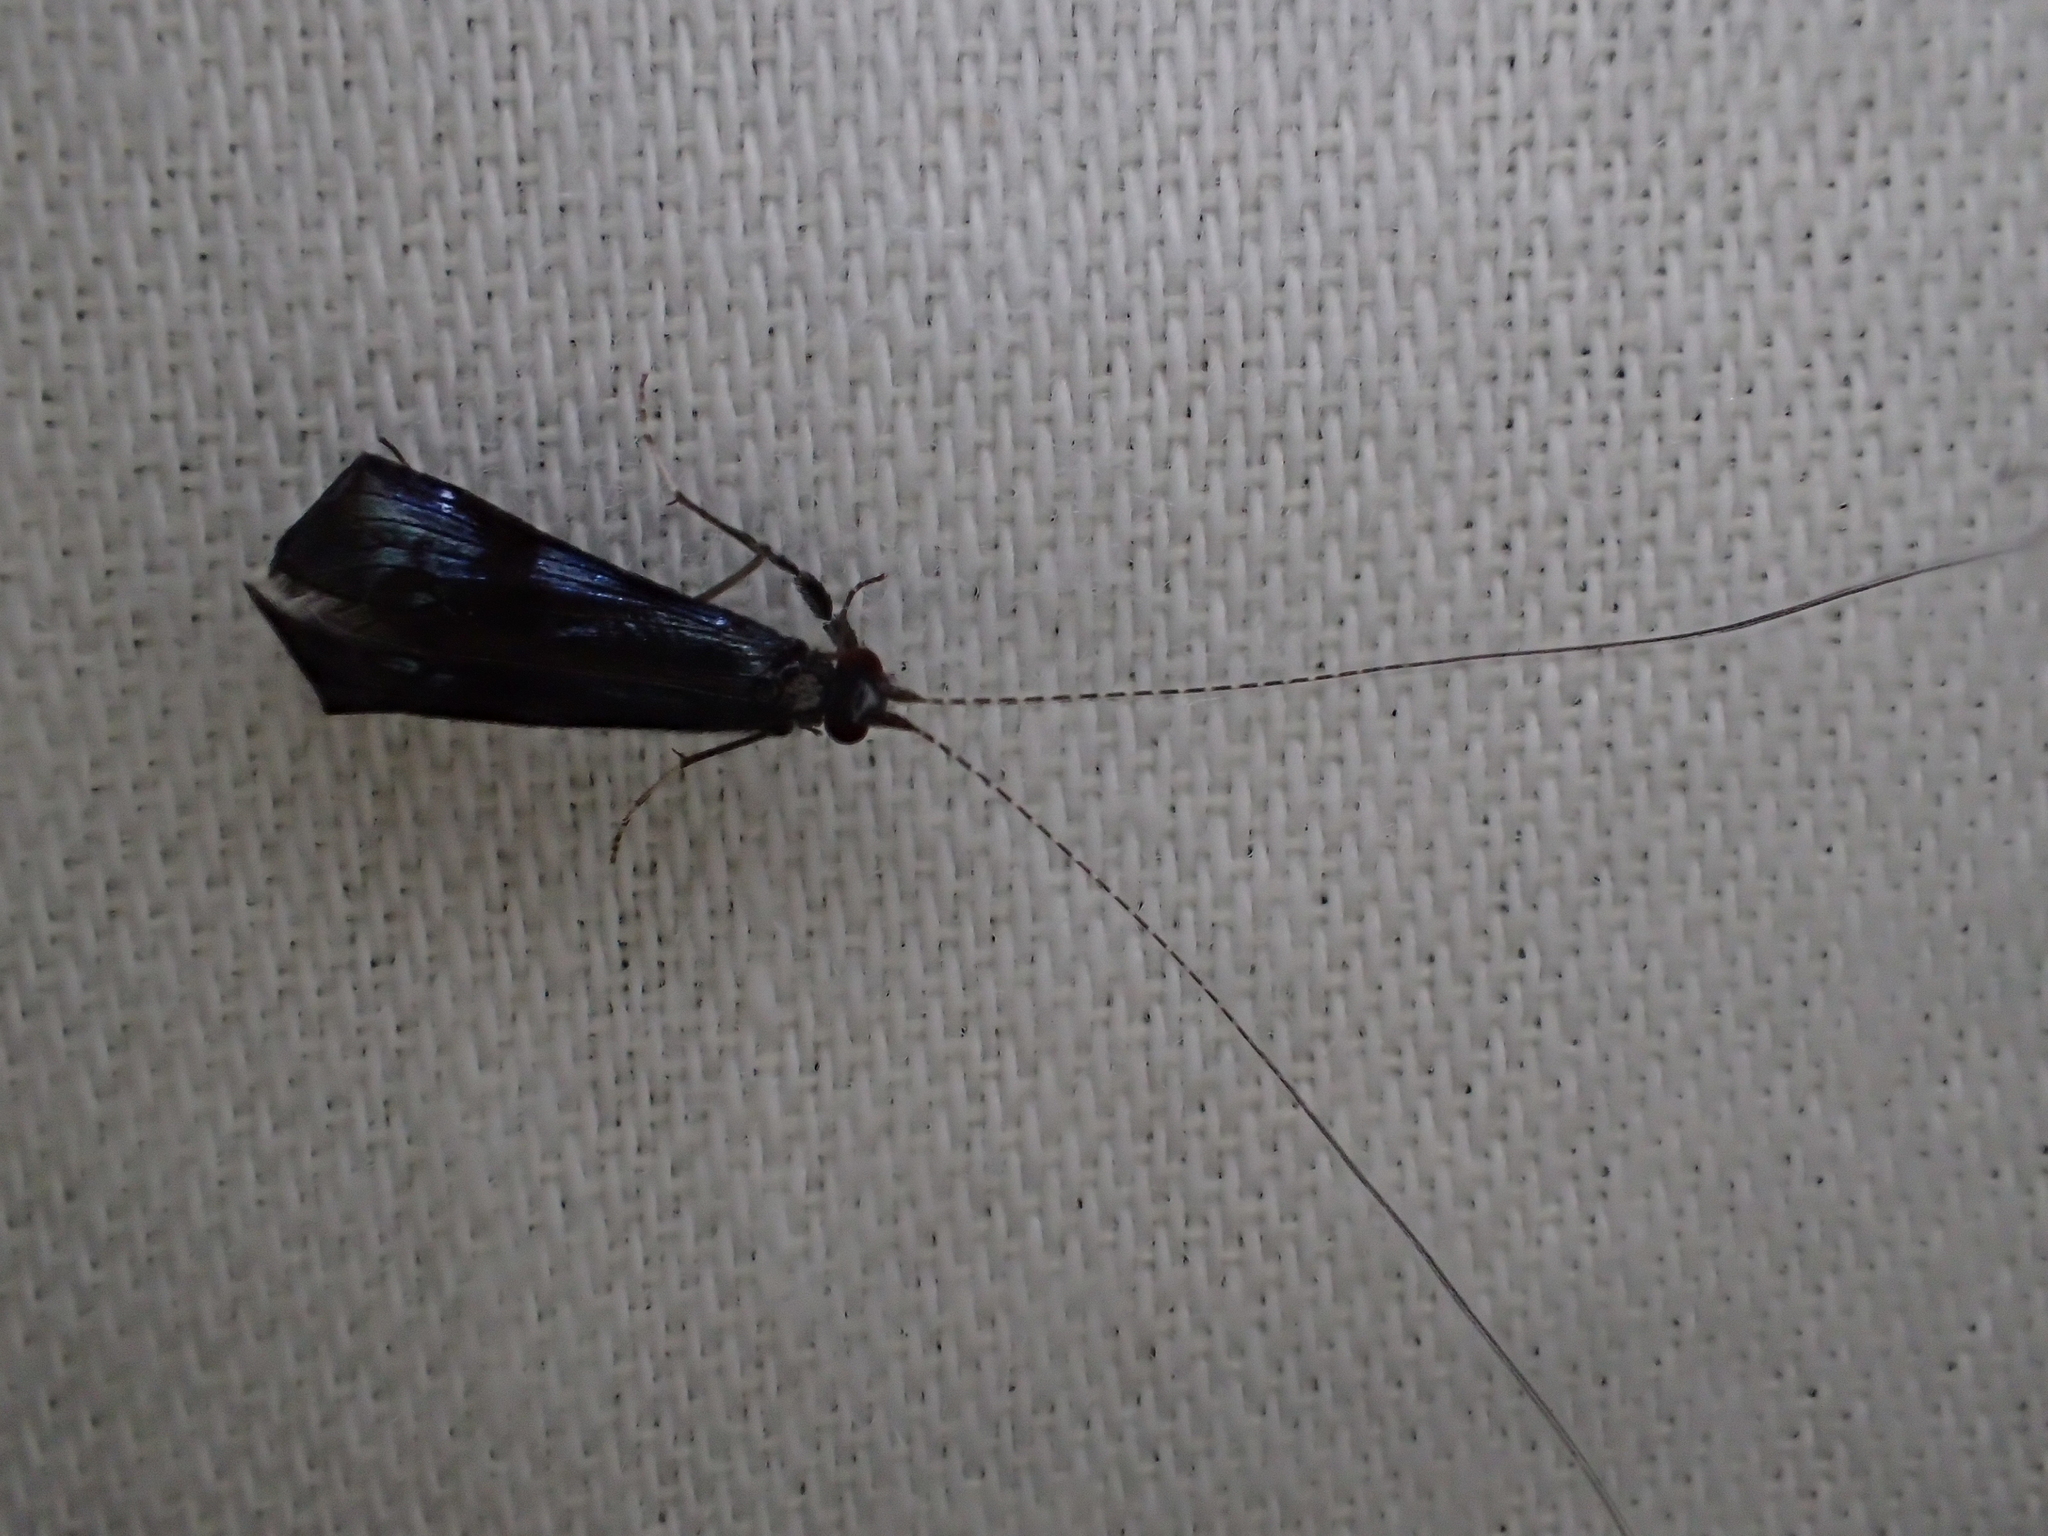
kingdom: Animalia
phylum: Arthropoda
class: Insecta
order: Trichoptera
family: Leptoceridae
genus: Mystacides
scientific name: Mystacides azureus
